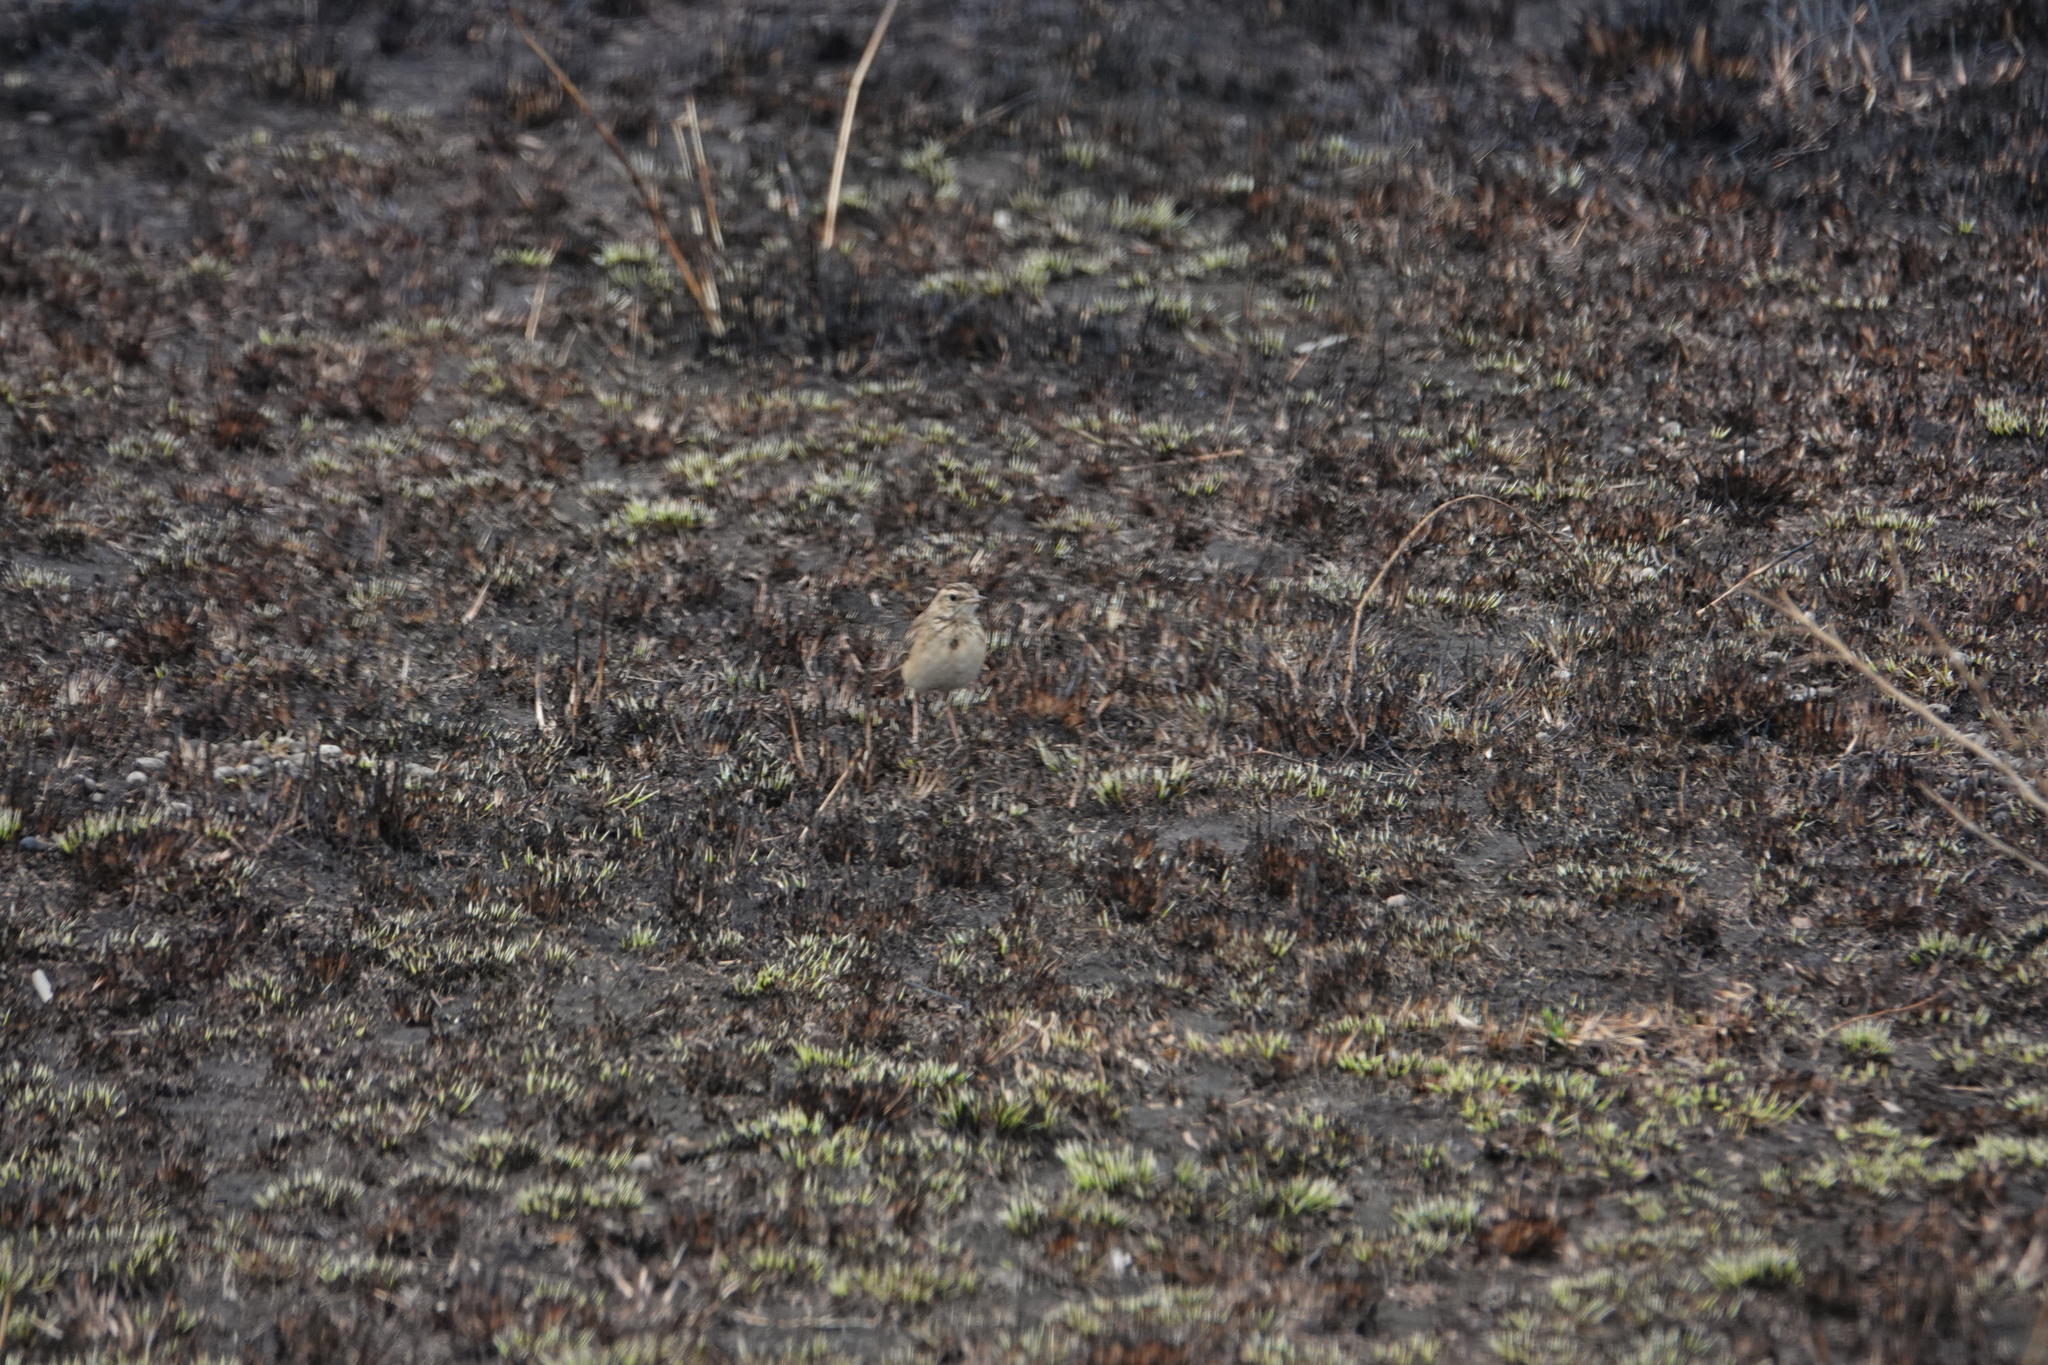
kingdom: Animalia
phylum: Chordata
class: Aves
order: Passeriformes
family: Motacillidae
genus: Anthus
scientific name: Anthus cinnamomeus
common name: African pipit
